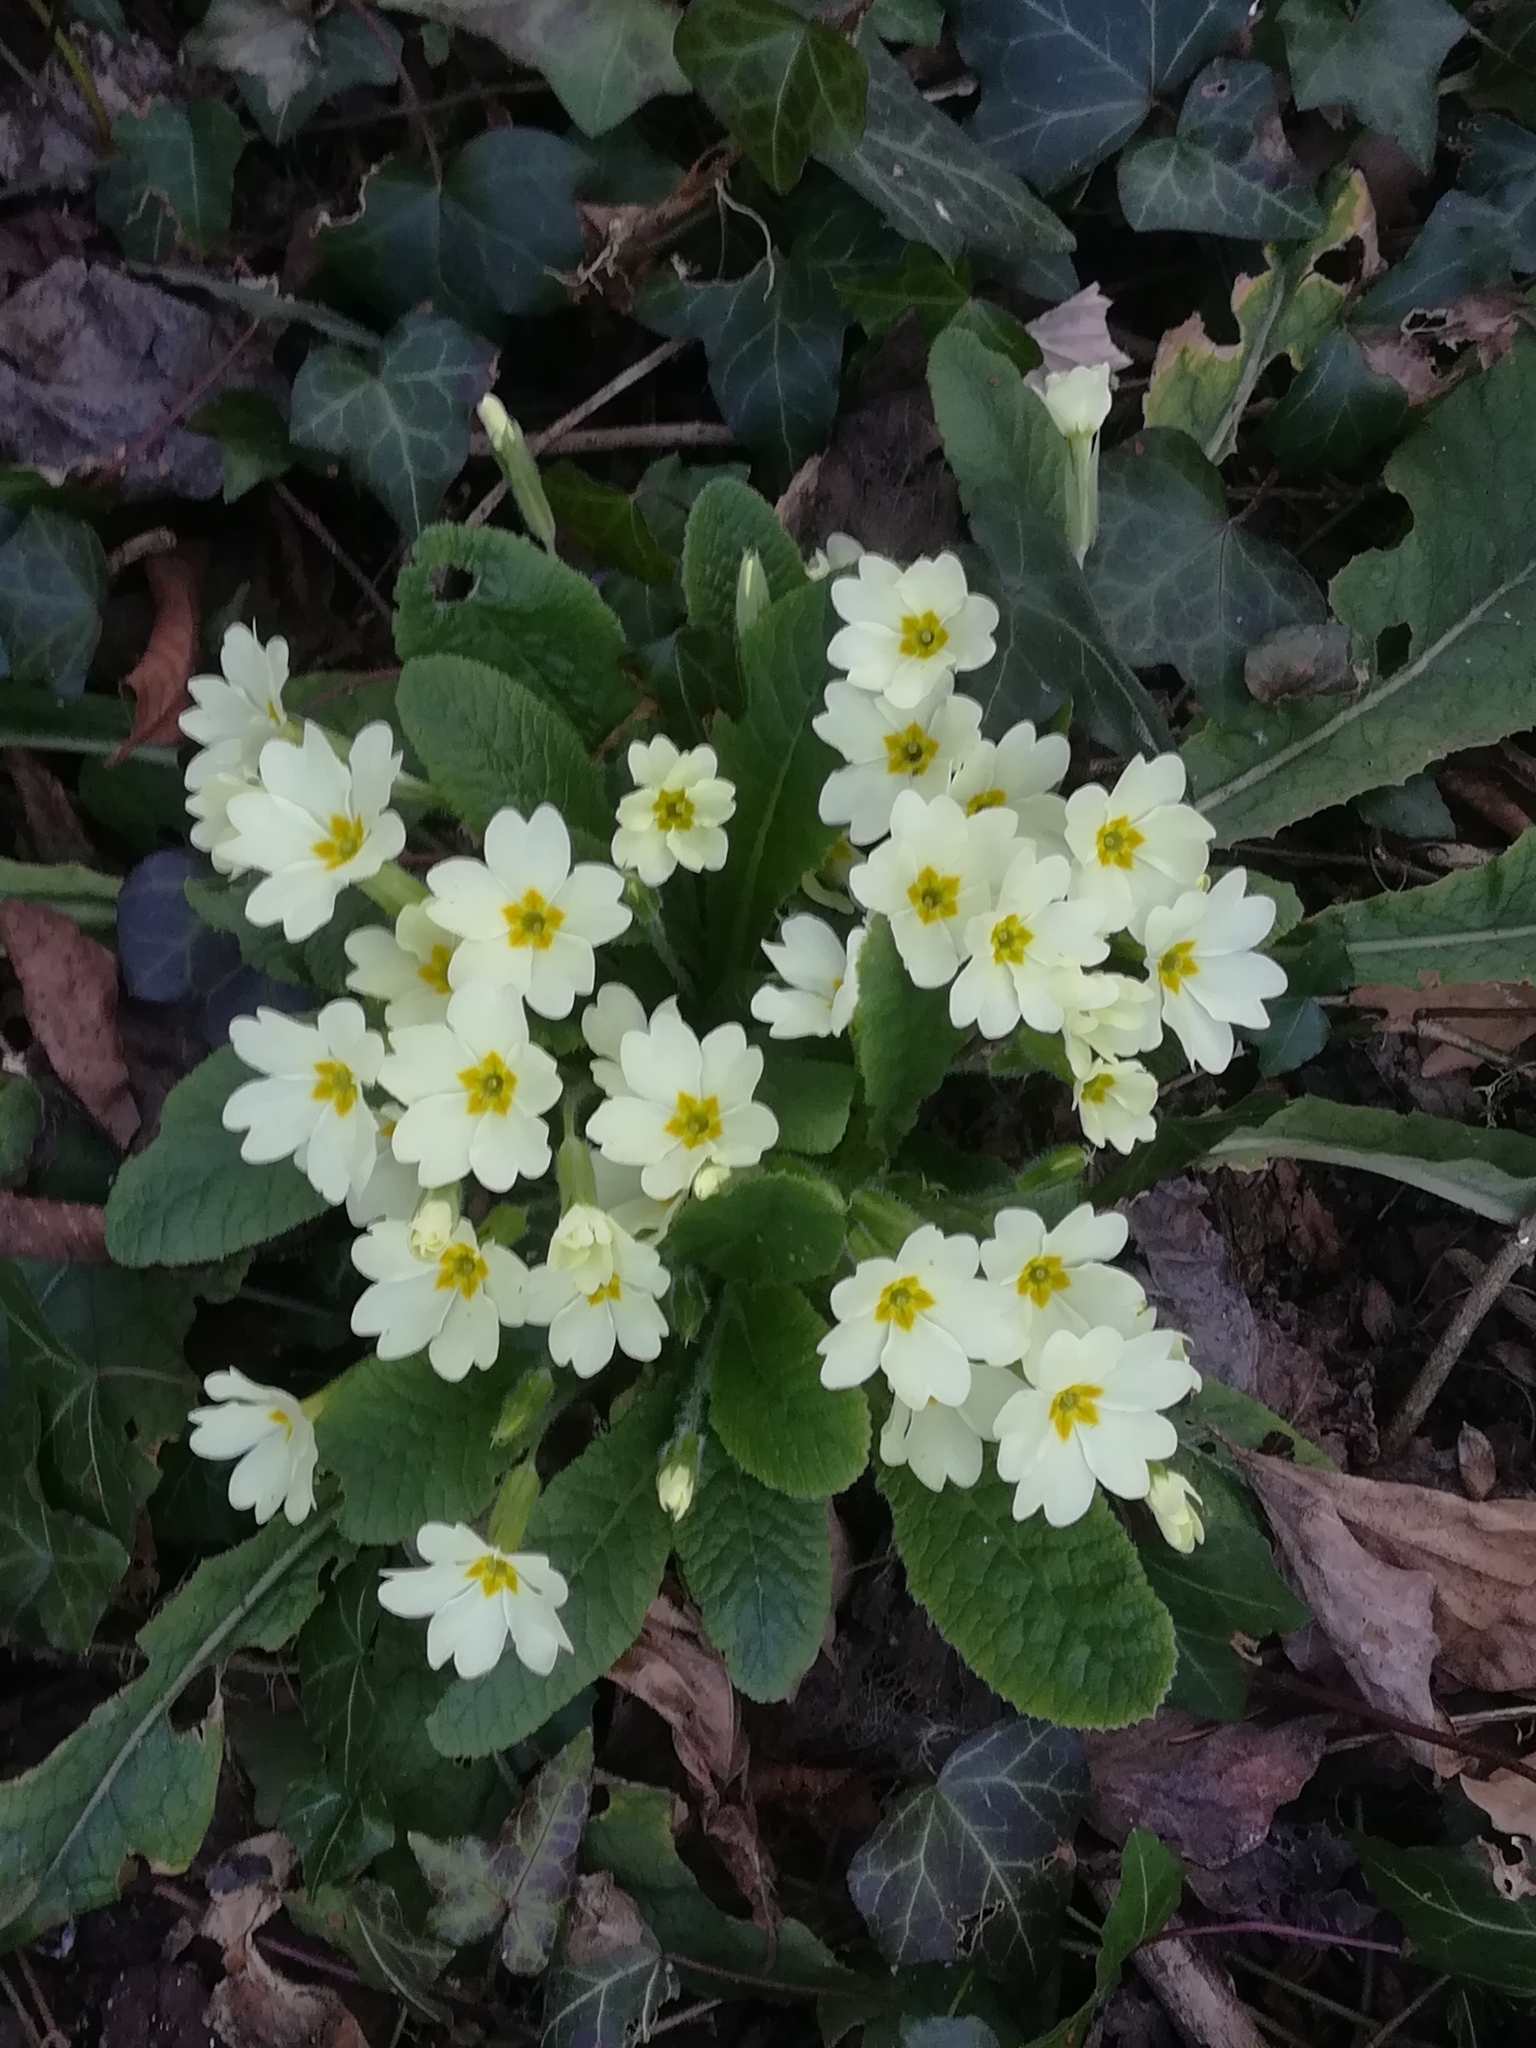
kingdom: Plantae
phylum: Tracheophyta
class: Magnoliopsida
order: Ericales
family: Primulaceae
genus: Primula
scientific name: Primula vulgaris
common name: Primrose
